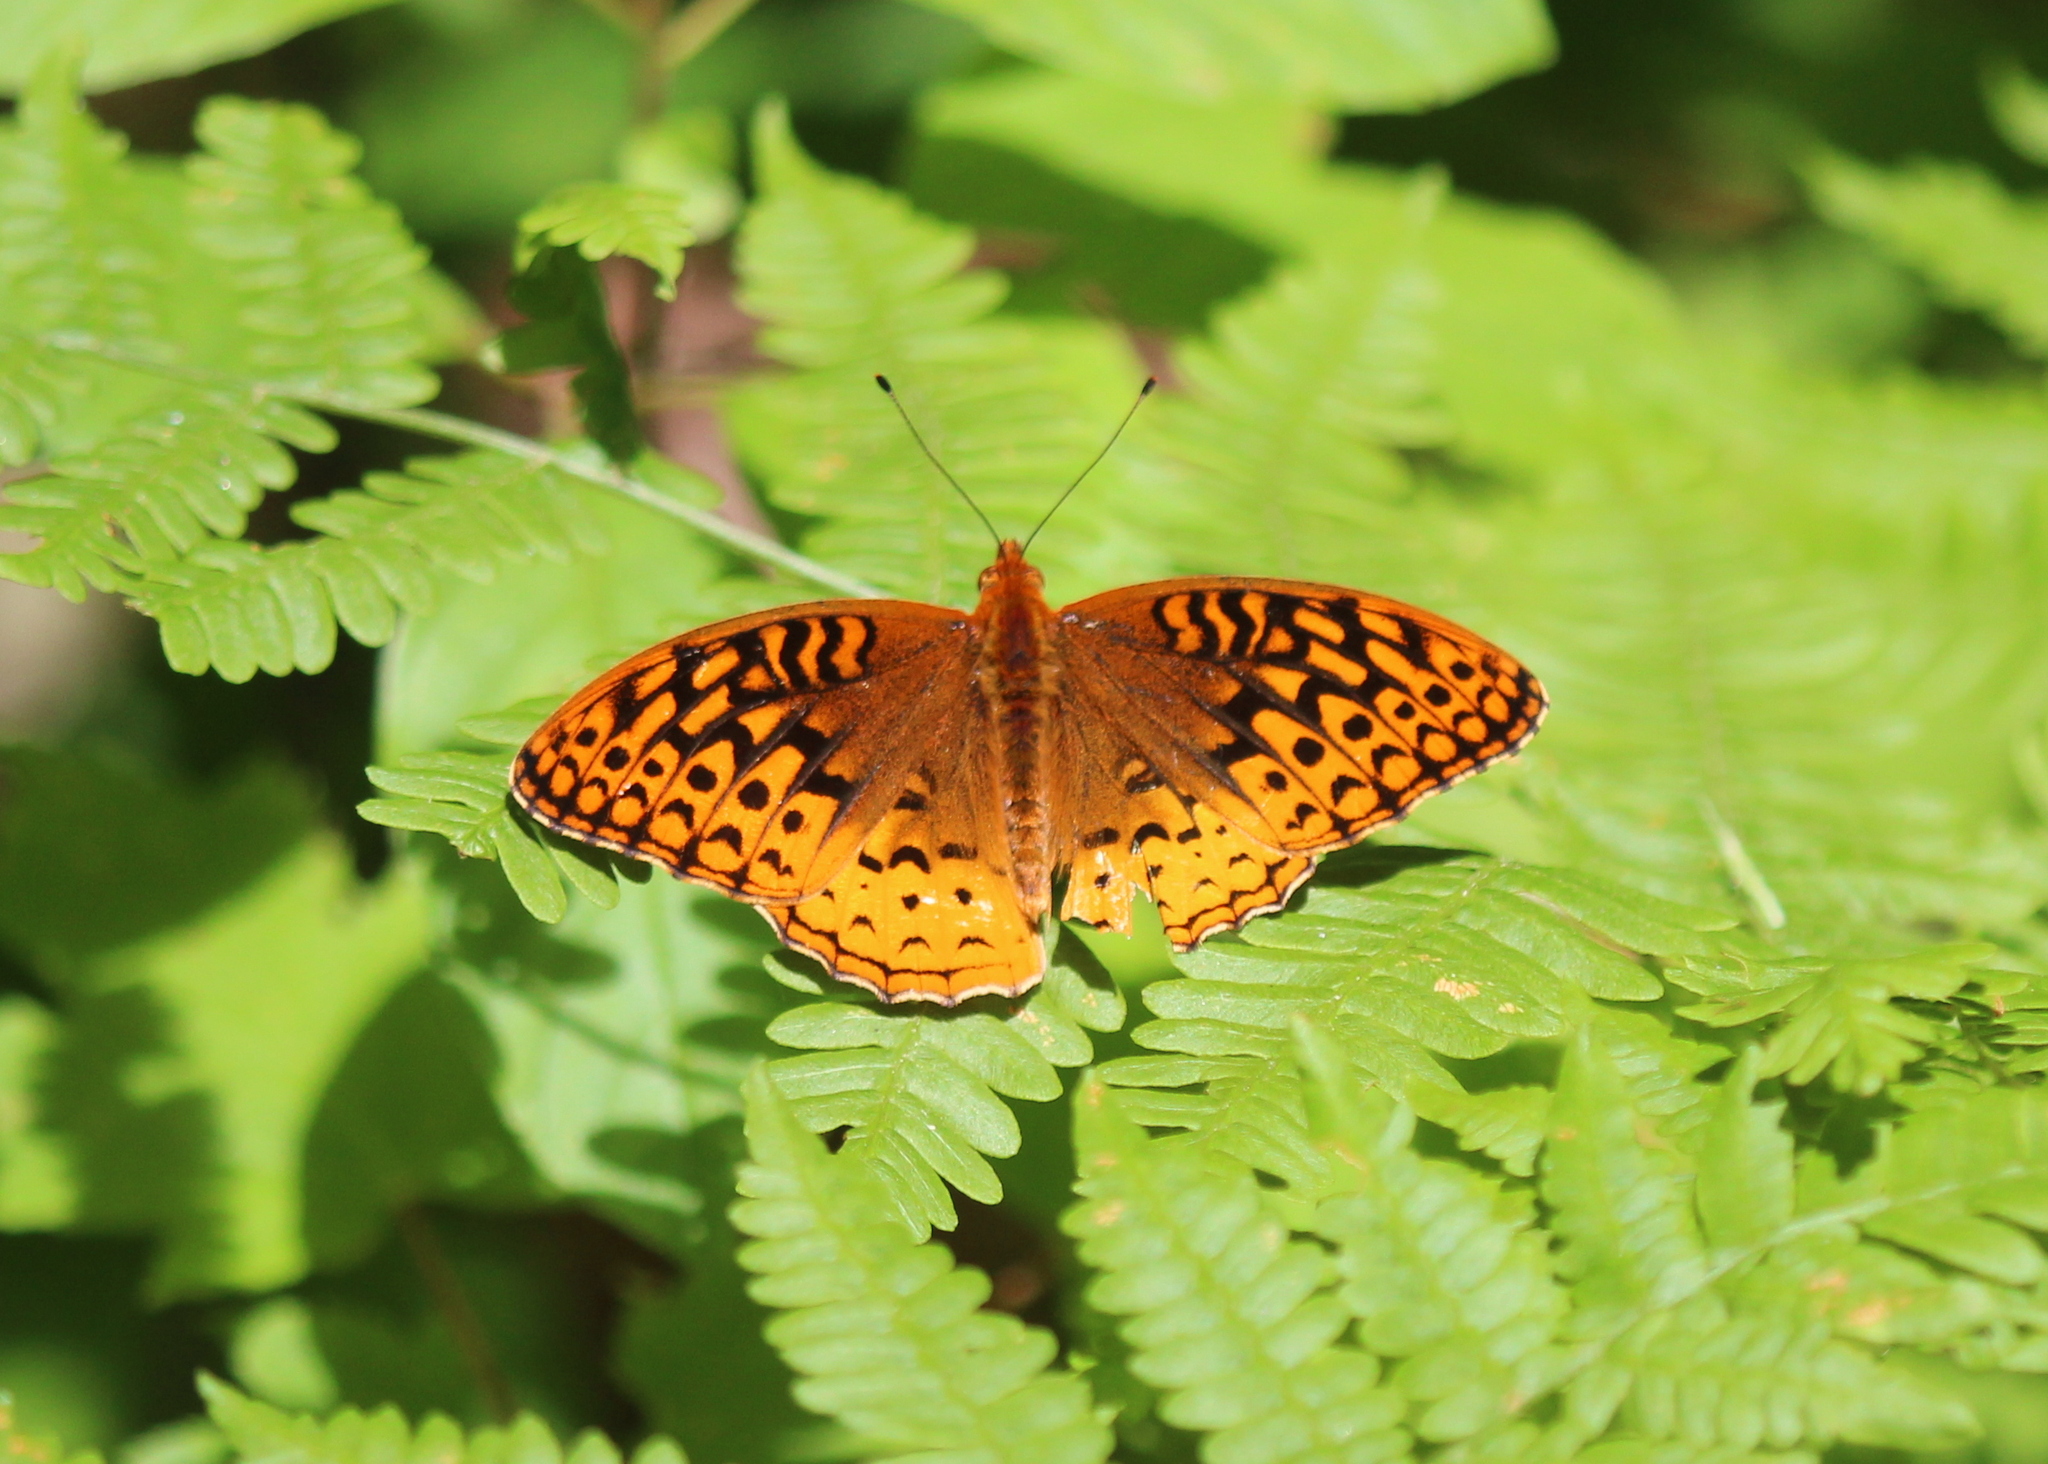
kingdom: Animalia
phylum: Arthropoda
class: Insecta
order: Lepidoptera
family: Nymphalidae
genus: Speyeria
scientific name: Speyeria cybele
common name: Great spangled fritillary
